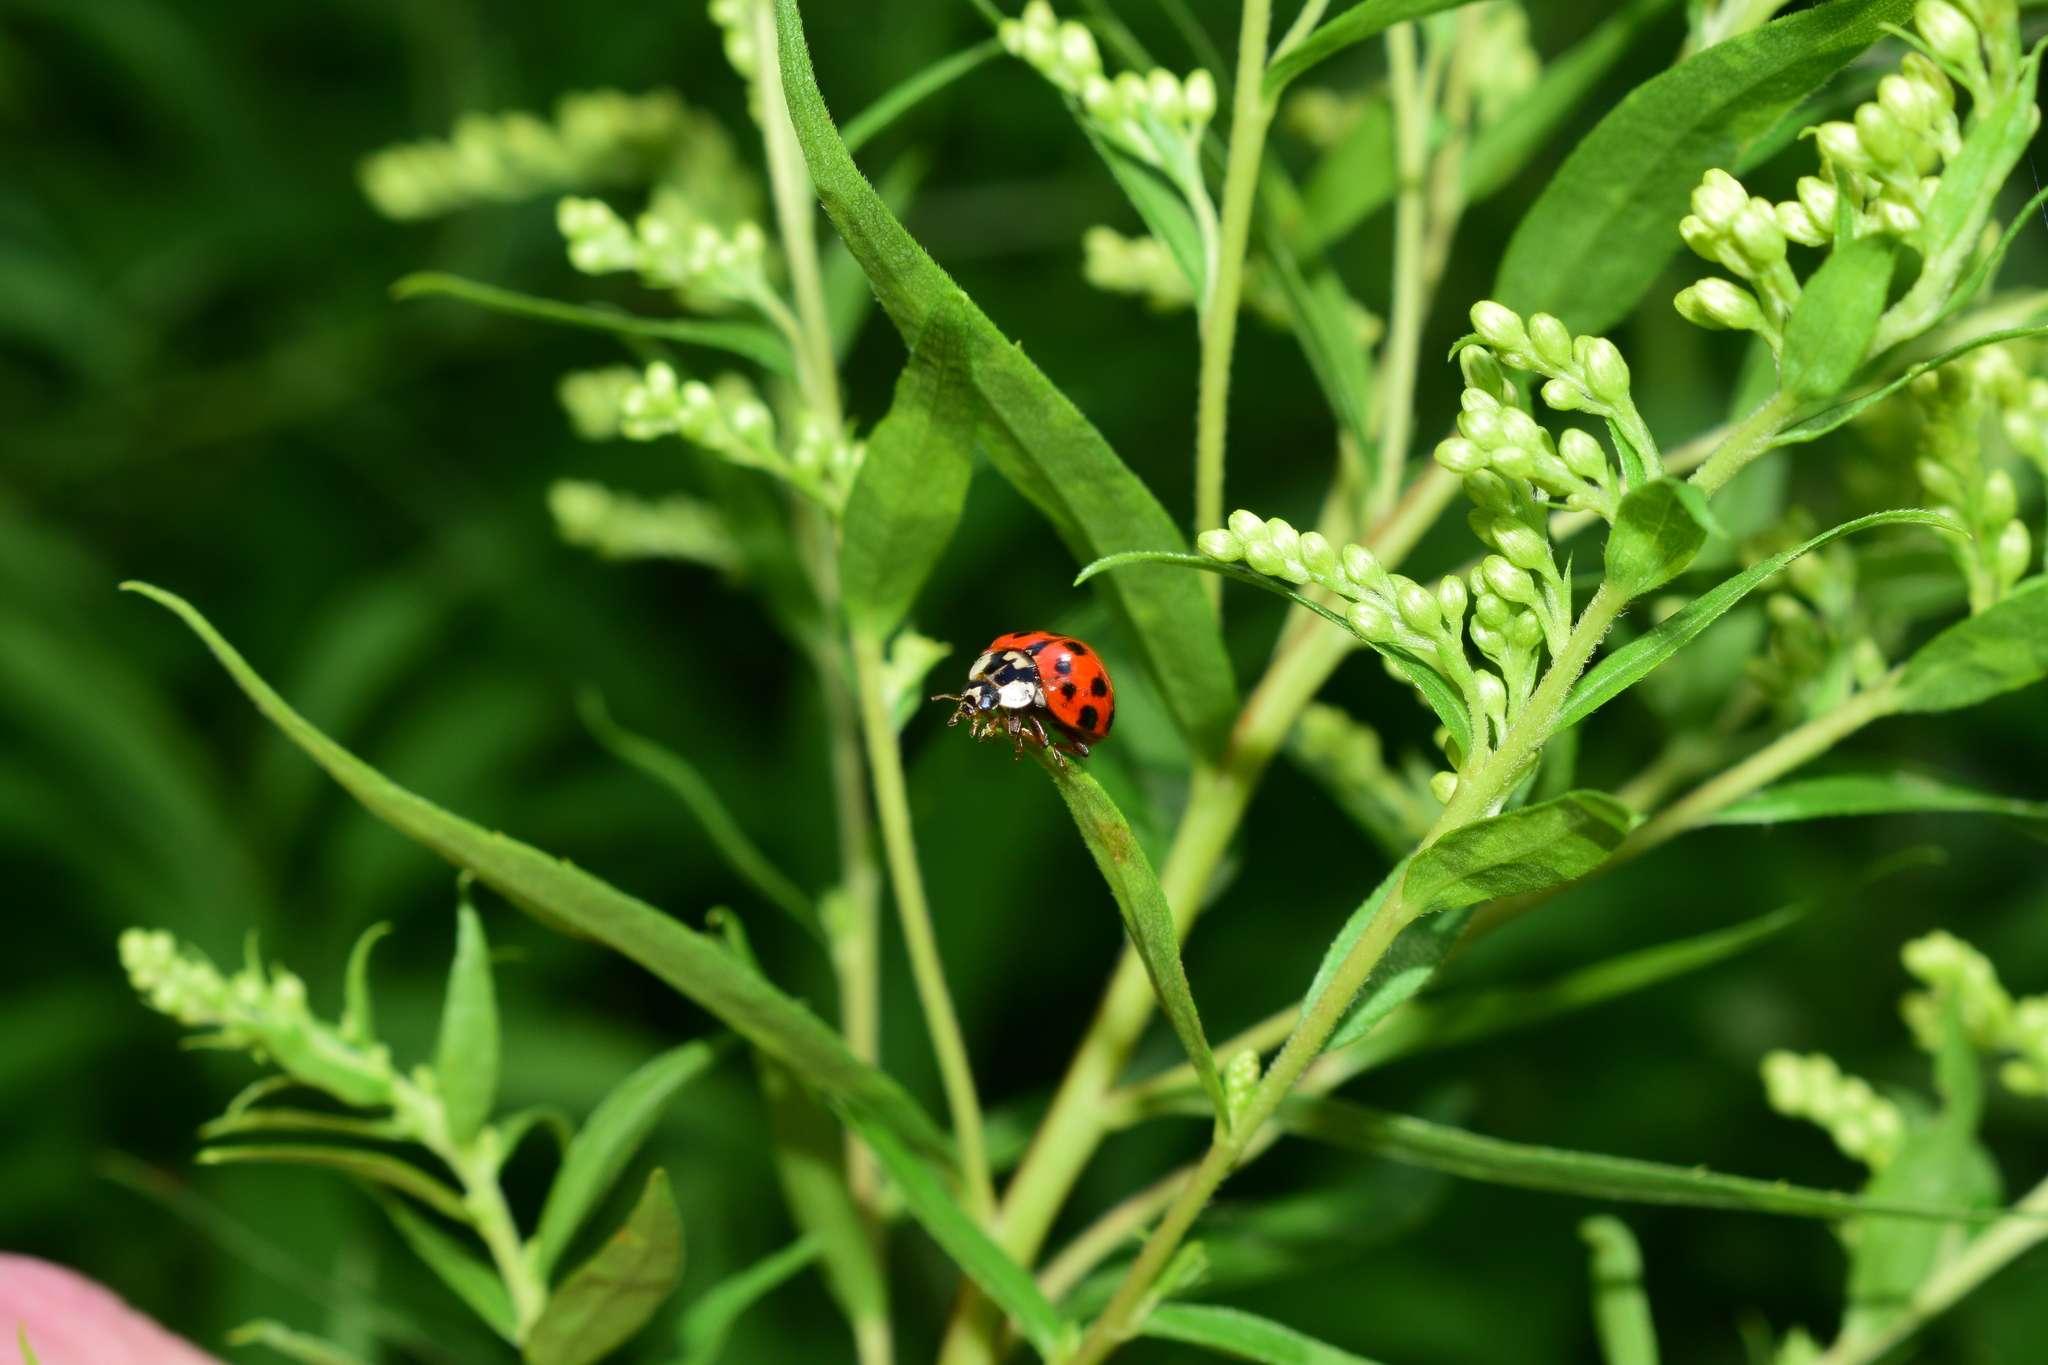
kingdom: Animalia
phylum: Arthropoda
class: Insecta
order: Coleoptera
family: Coccinellidae
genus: Harmonia
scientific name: Harmonia axyridis
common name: Harlequin ladybird
